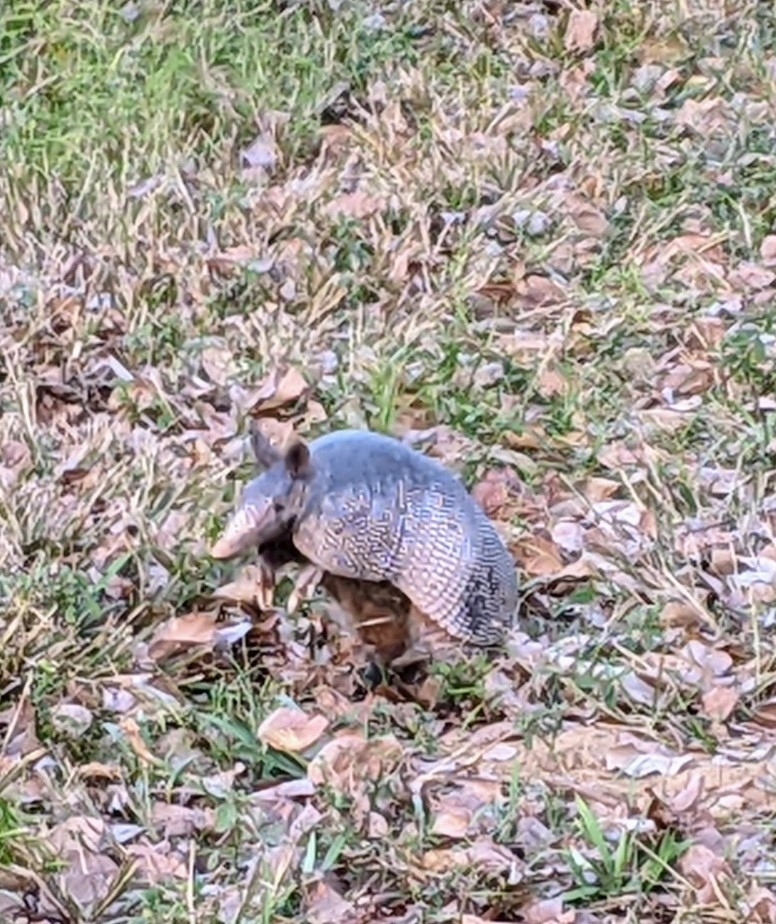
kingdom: Animalia
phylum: Chordata
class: Mammalia
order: Cingulata
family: Dasypodidae
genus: Dasypus
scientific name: Dasypus novemcinctus
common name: Nine-banded armadillo
